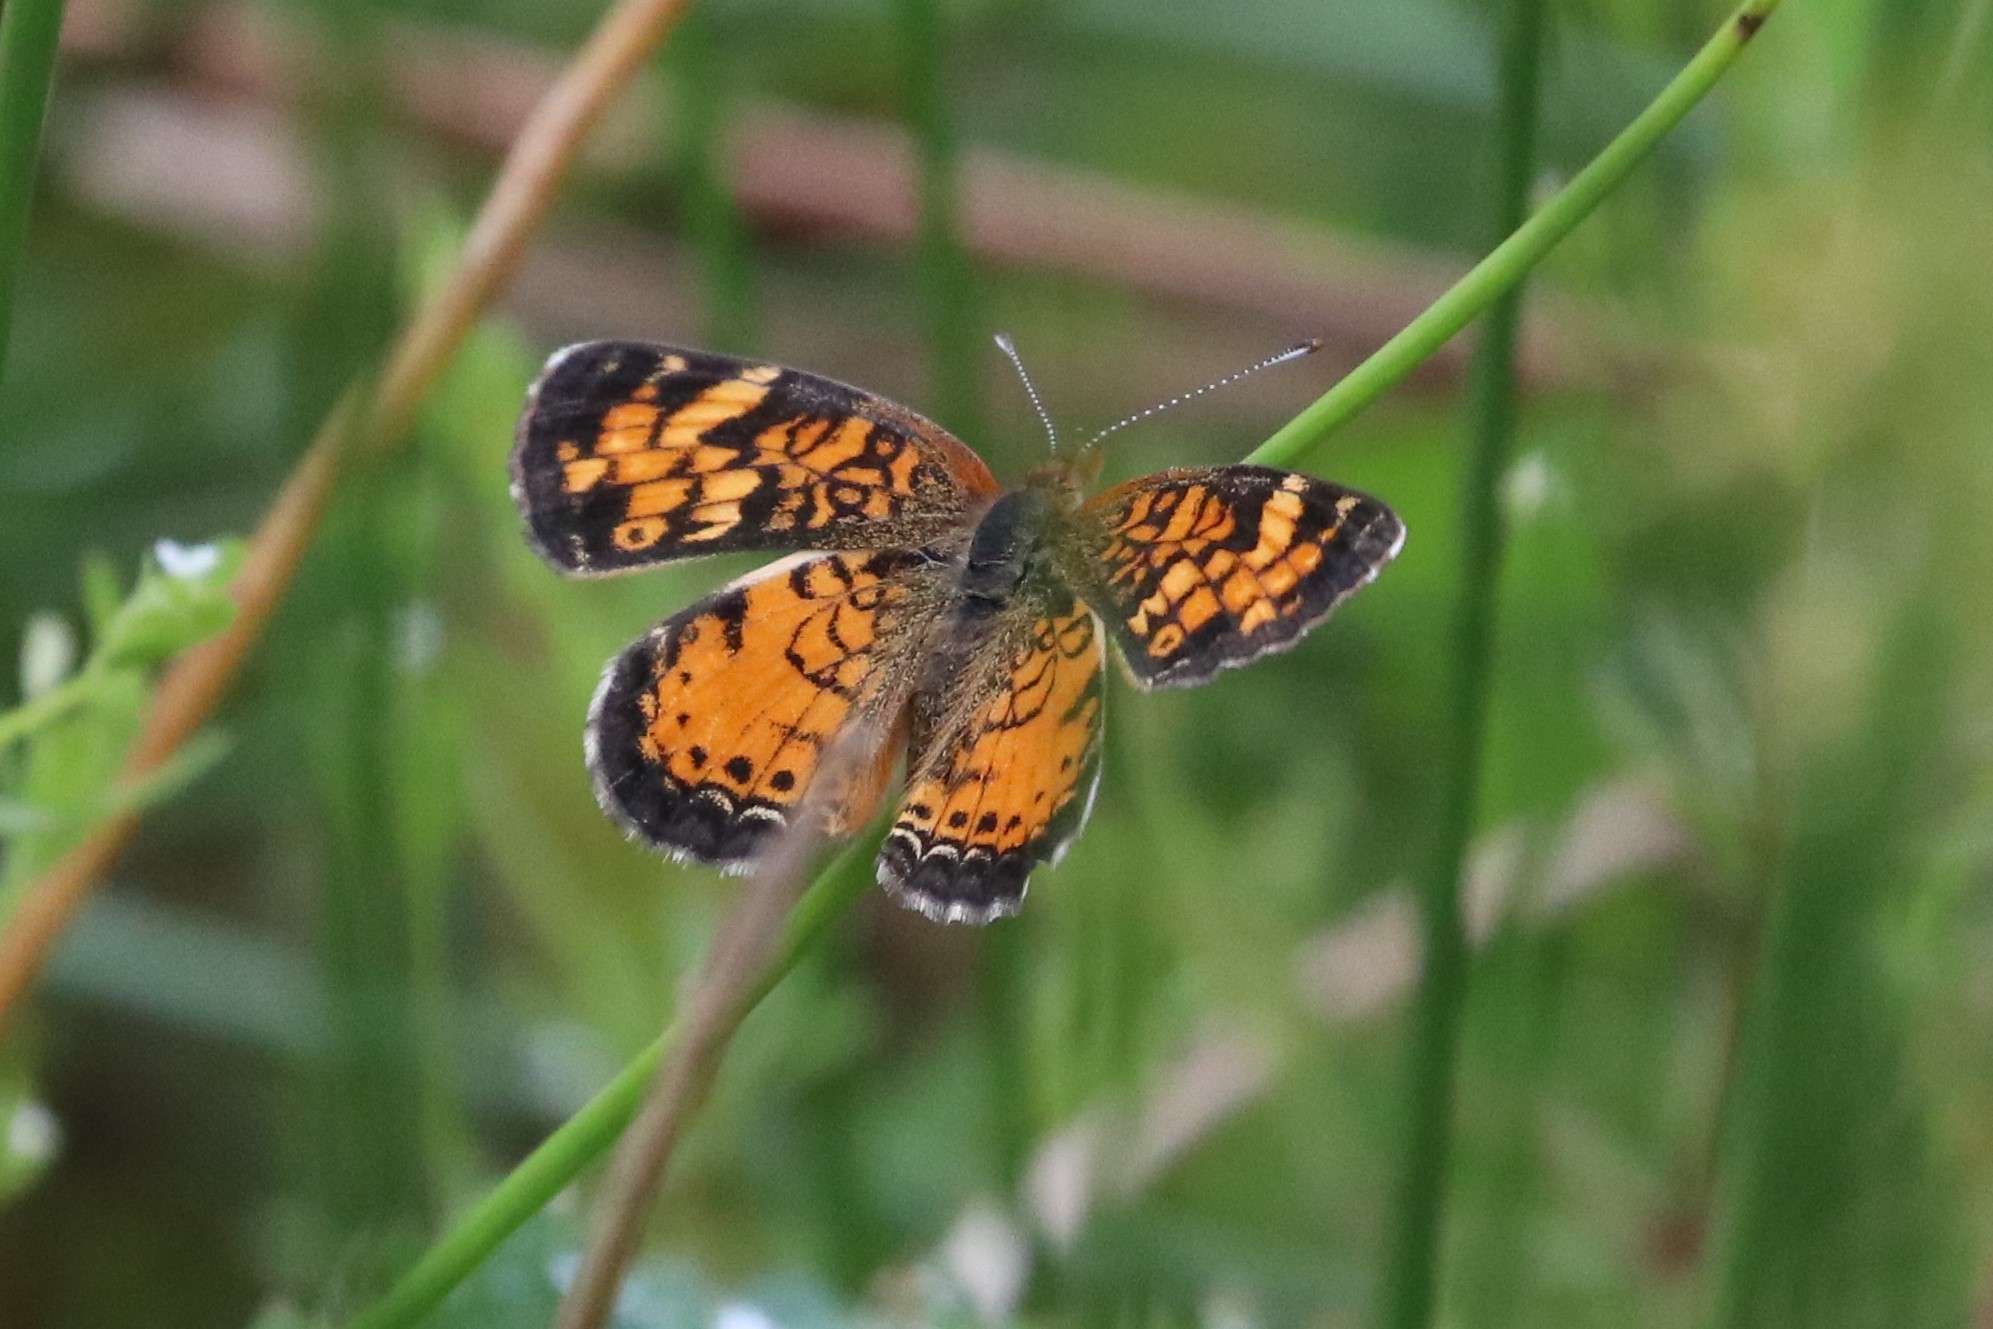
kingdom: Animalia
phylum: Arthropoda
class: Insecta
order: Lepidoptera
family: Nymphalidae
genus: Phyciodes
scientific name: Phyciodes tharos
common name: Pearl crescent
